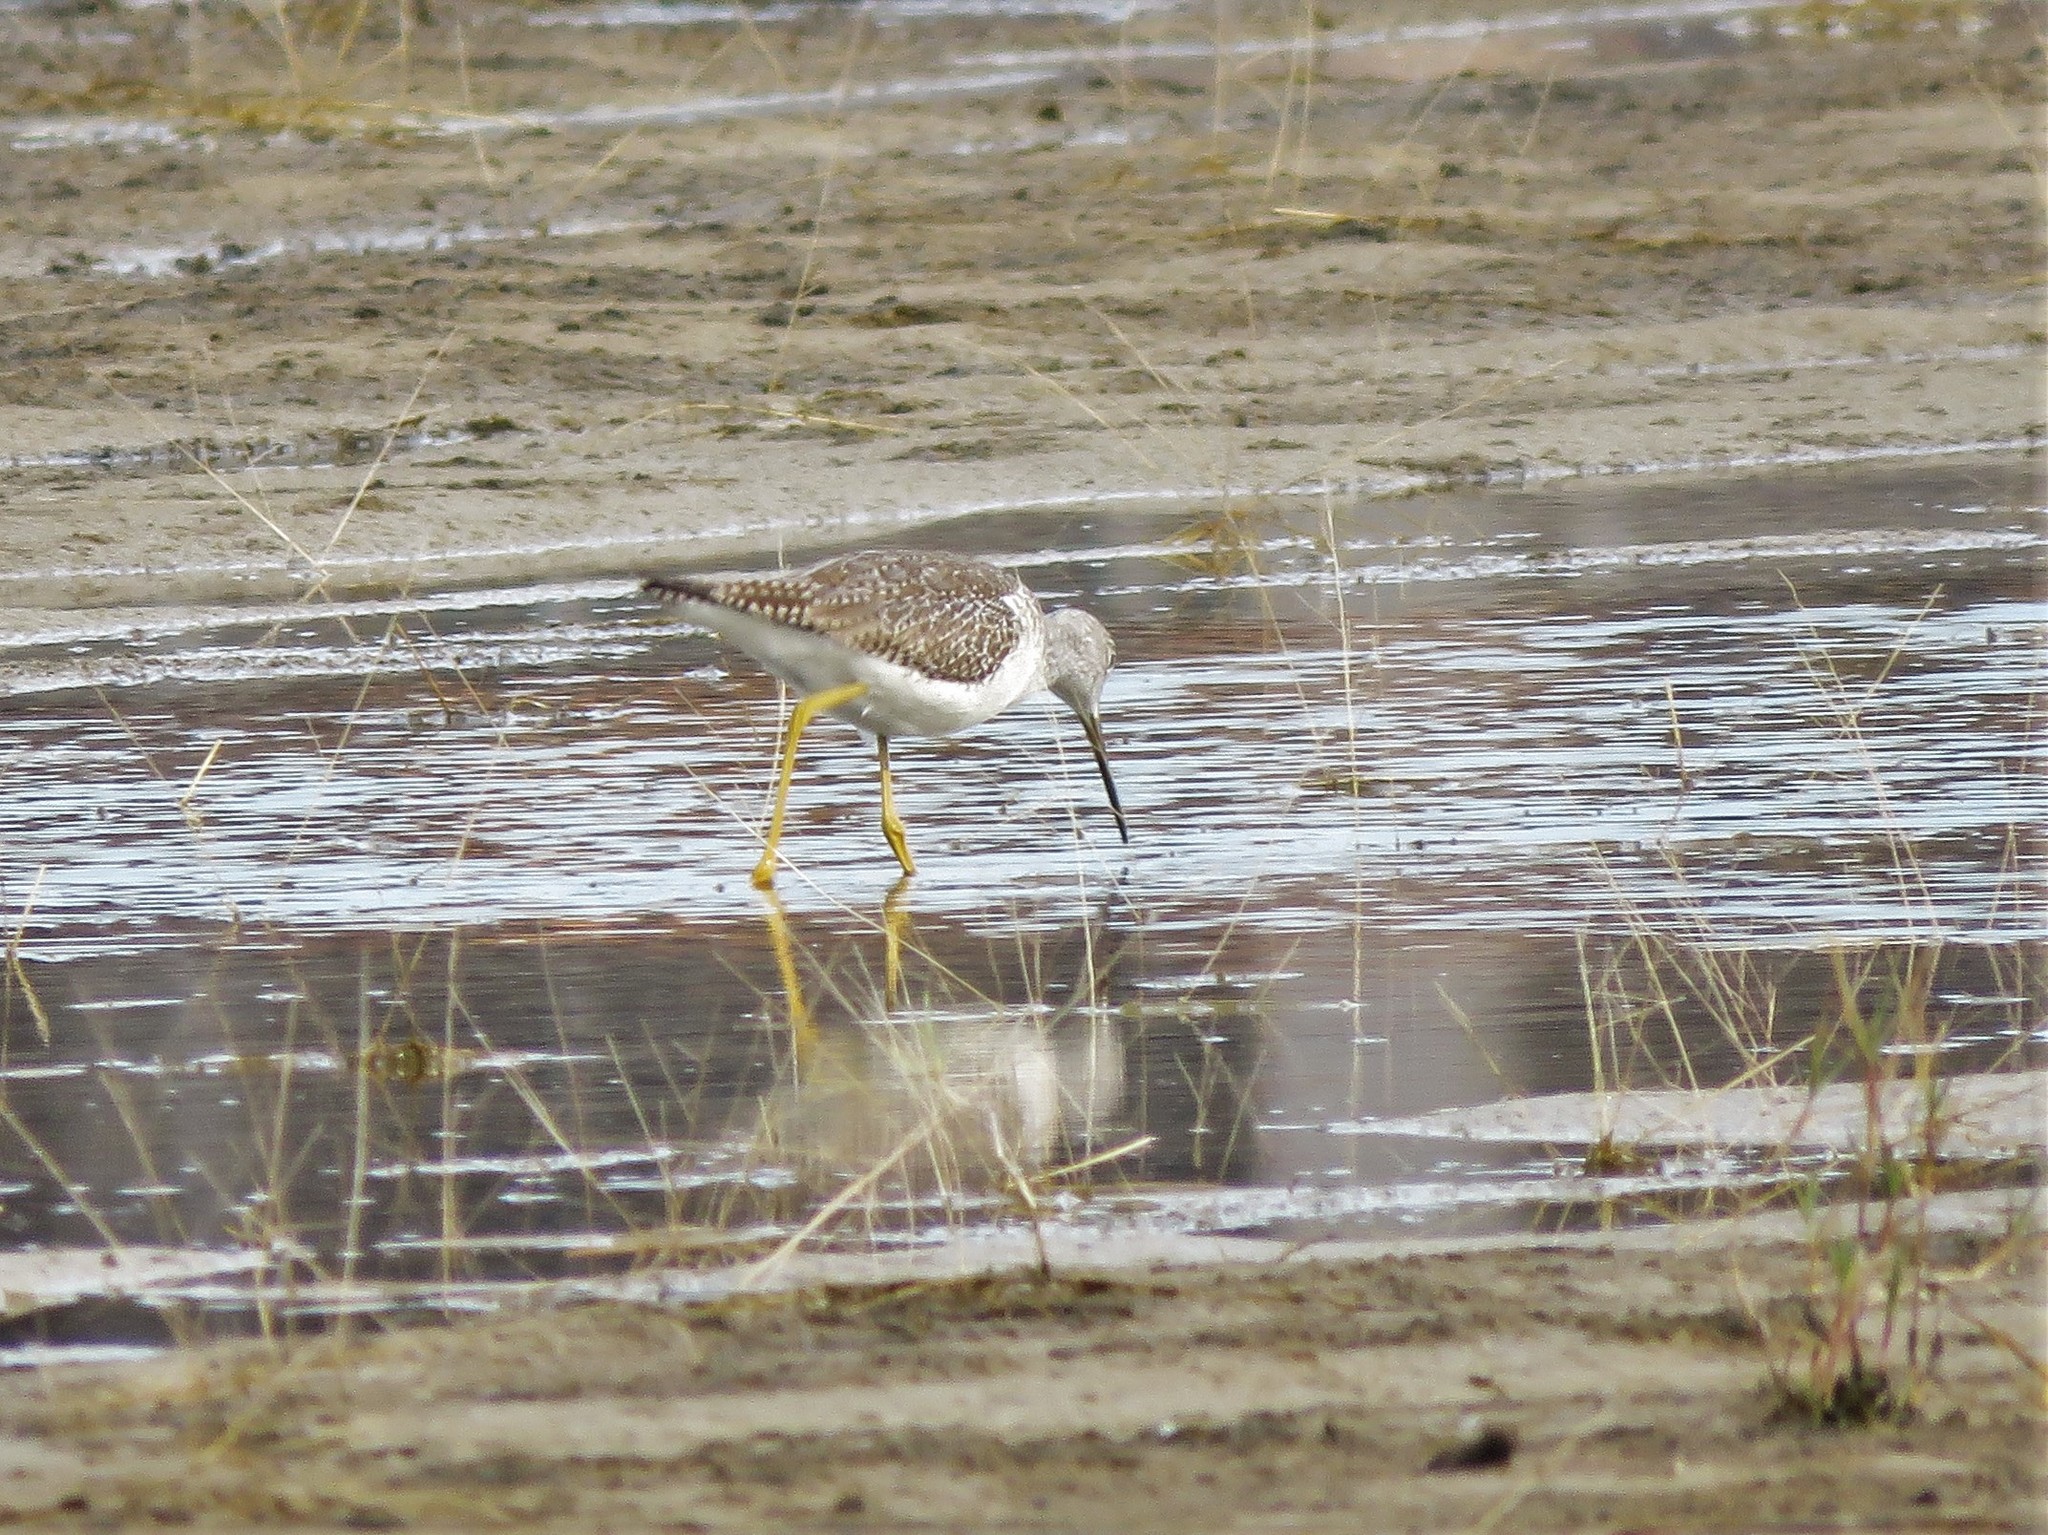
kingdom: Animalia
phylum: Chordata
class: Aves
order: Charadriiformes
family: Scolopacidae
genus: Tringa
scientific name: Tringa melanoleuca
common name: Greater yellowlegs
